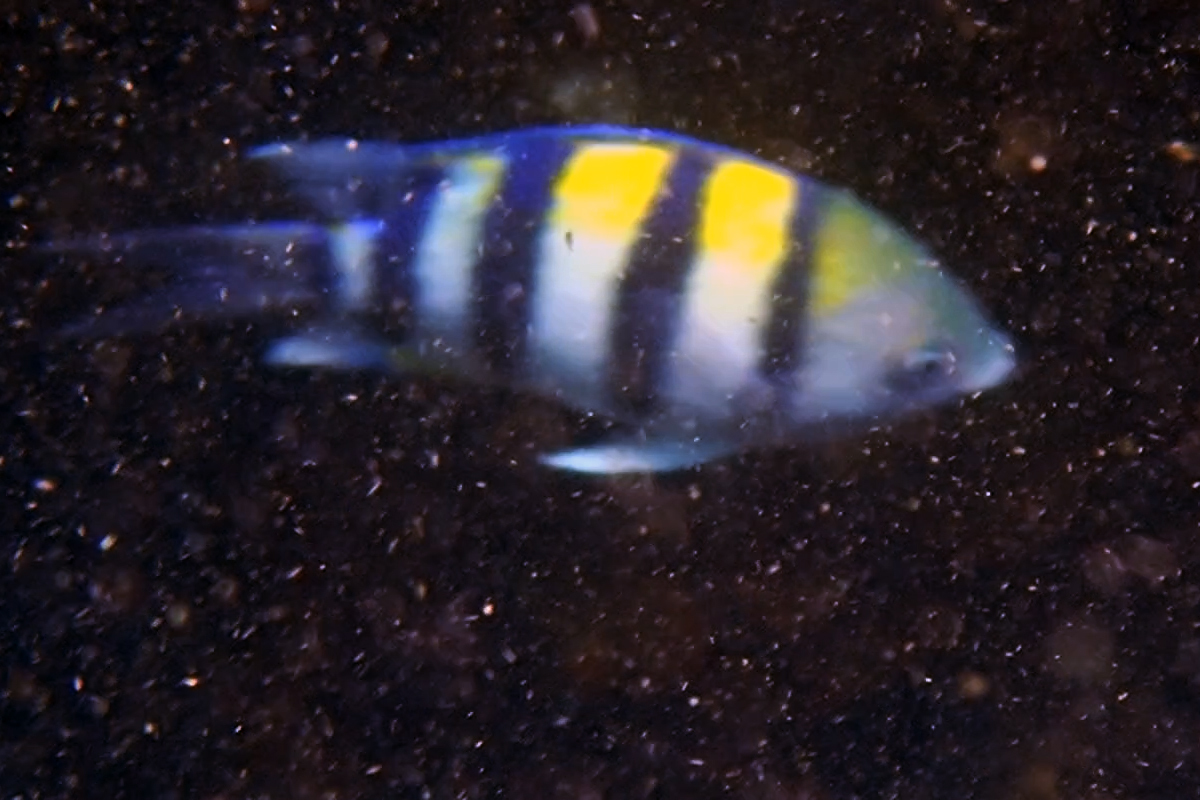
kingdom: Animalia
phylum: Chordata
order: Perciformes
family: Pomacentridae
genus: Abudefduf
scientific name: Abudefduf vaigiensis
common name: Indo-pacific sergeant
